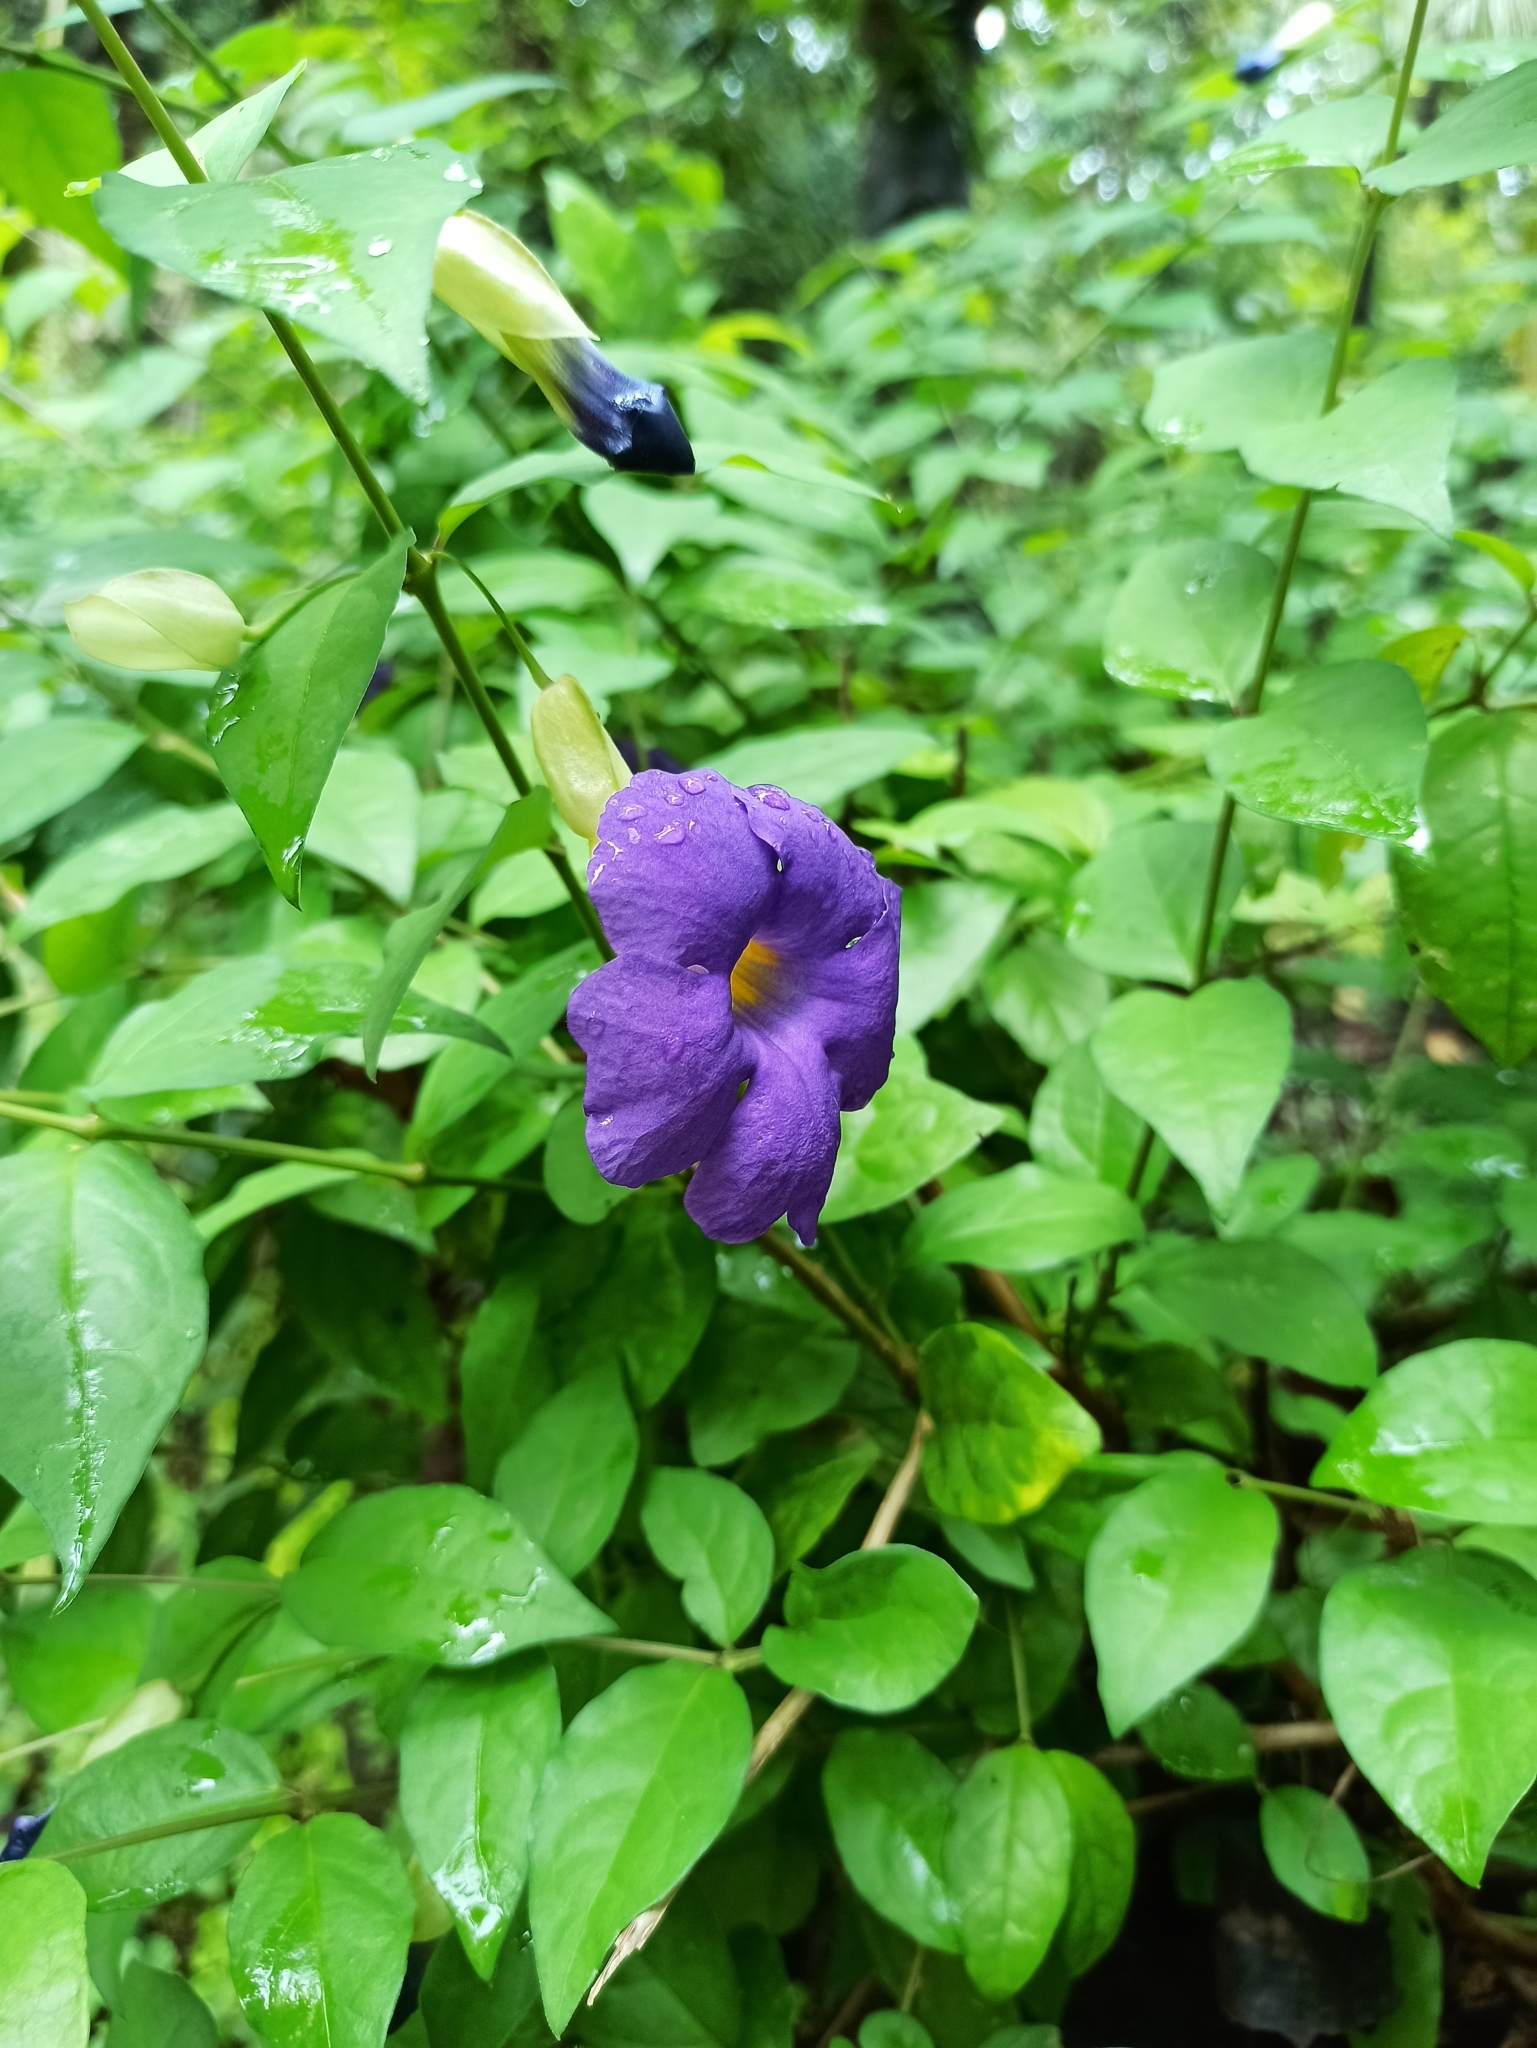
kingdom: Plantae
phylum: Tracheophyta
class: Magnoliopsida
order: Lamiales
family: Acanthaceae
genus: Thunbergia
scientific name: Thunbergia erecta
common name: Bush clockvine
